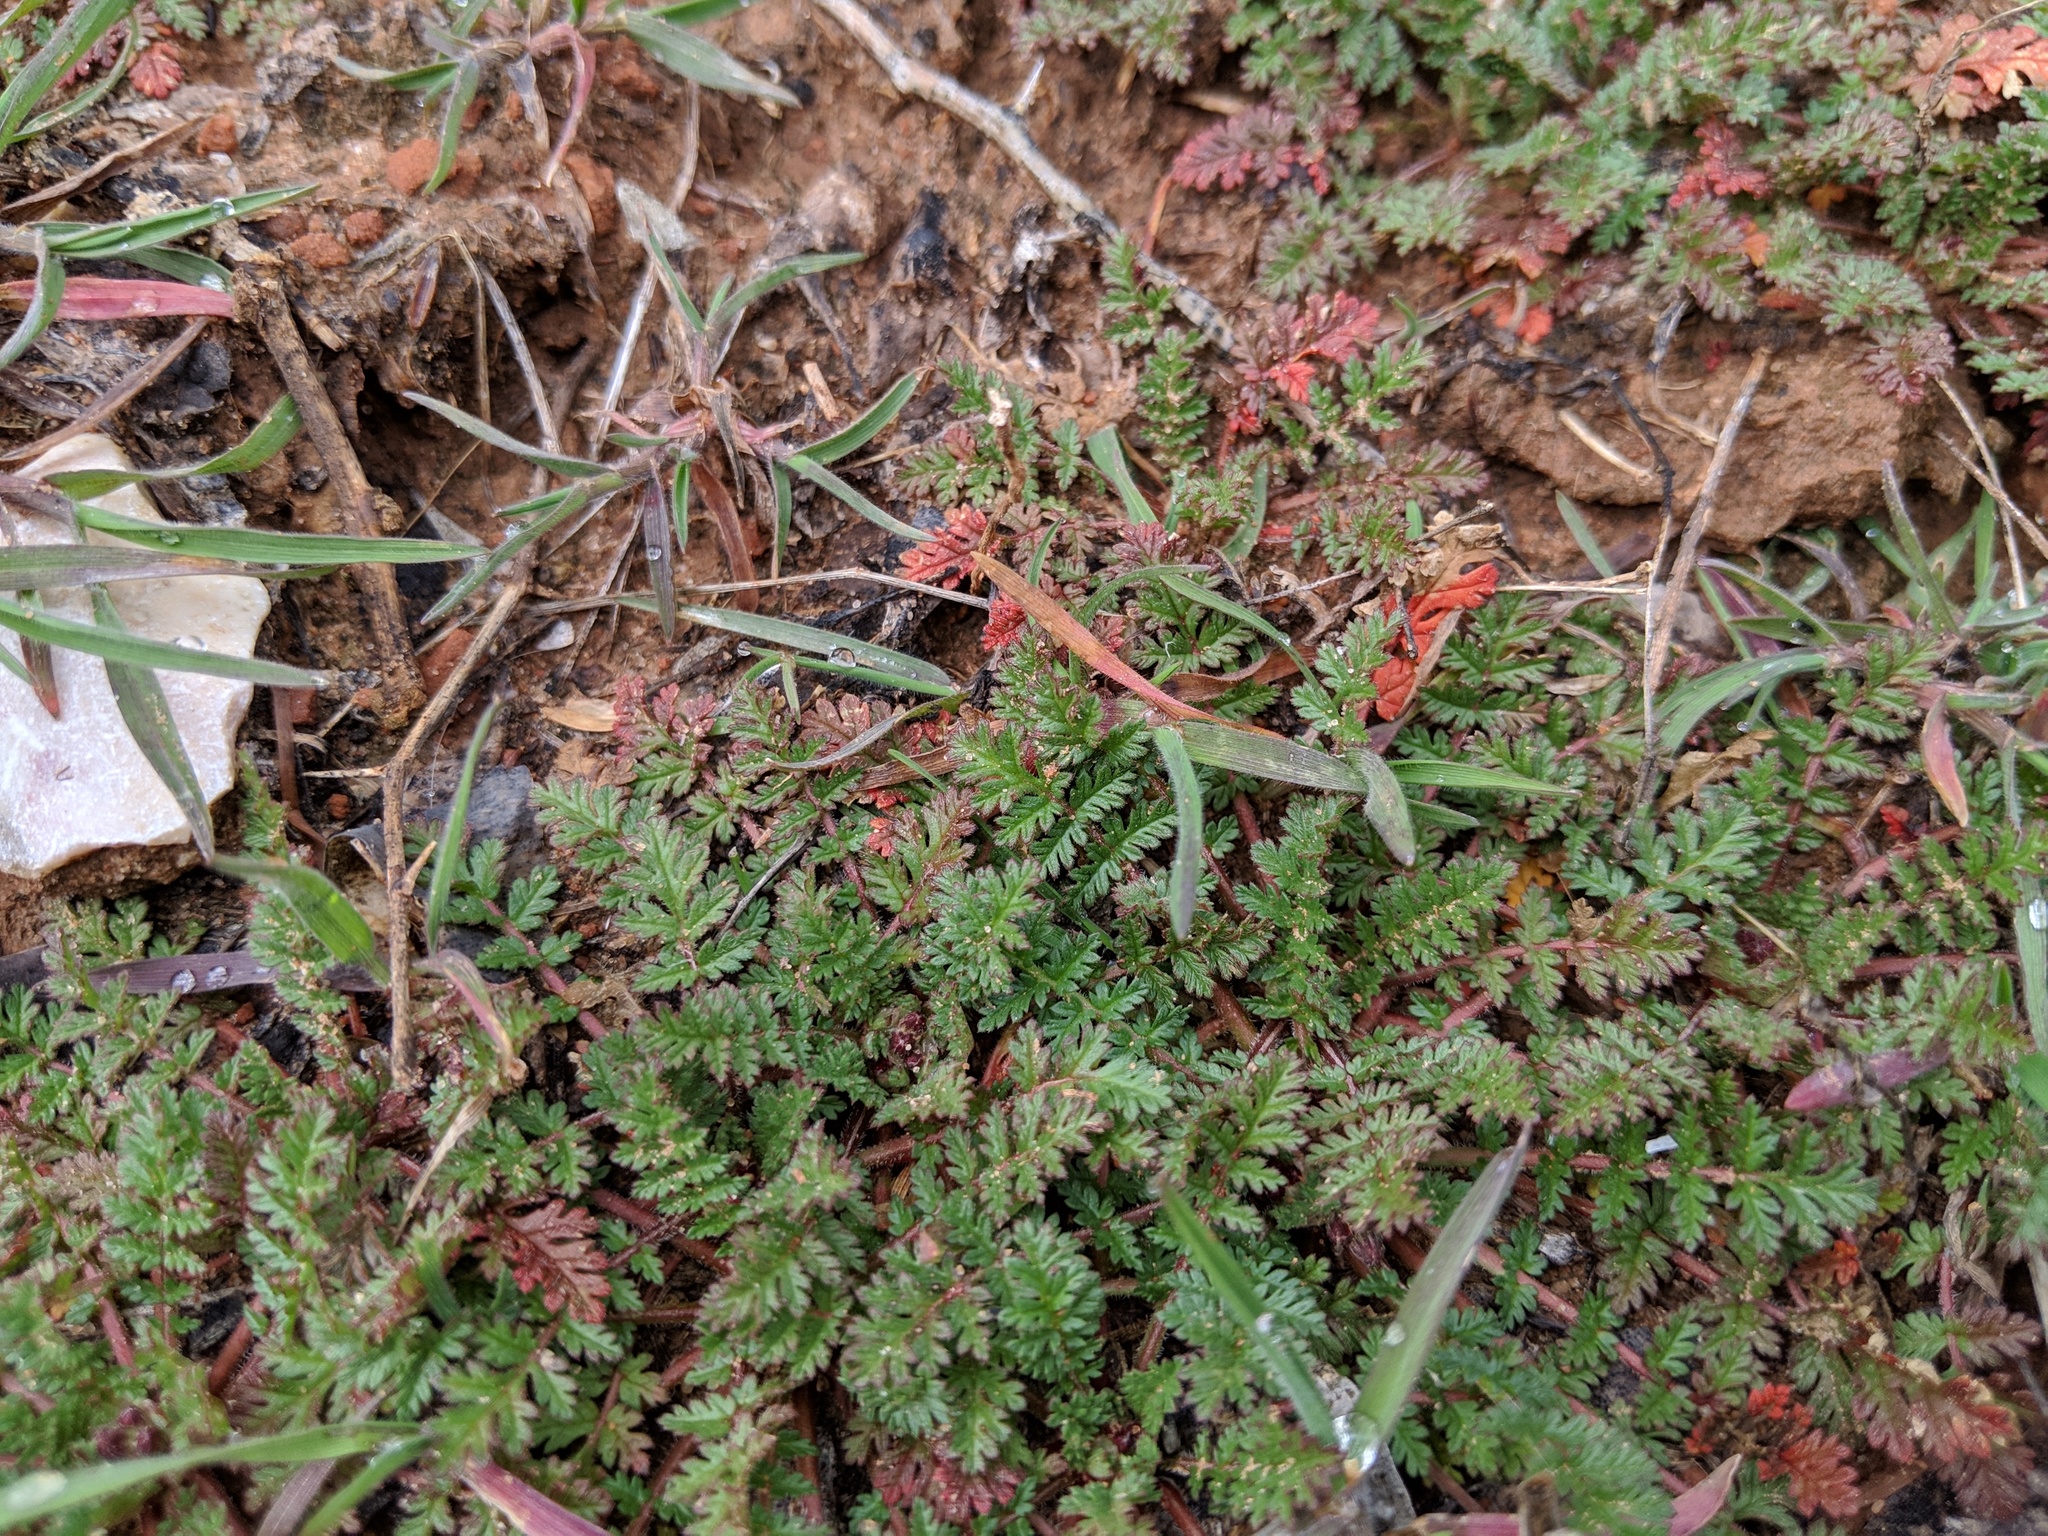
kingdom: Plantae
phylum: Tracheophyta
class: Magnoliopsida
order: Geraniales
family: Geraniaceae
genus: Erodium
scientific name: Erodium cicutarium
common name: Common stork's-bill
